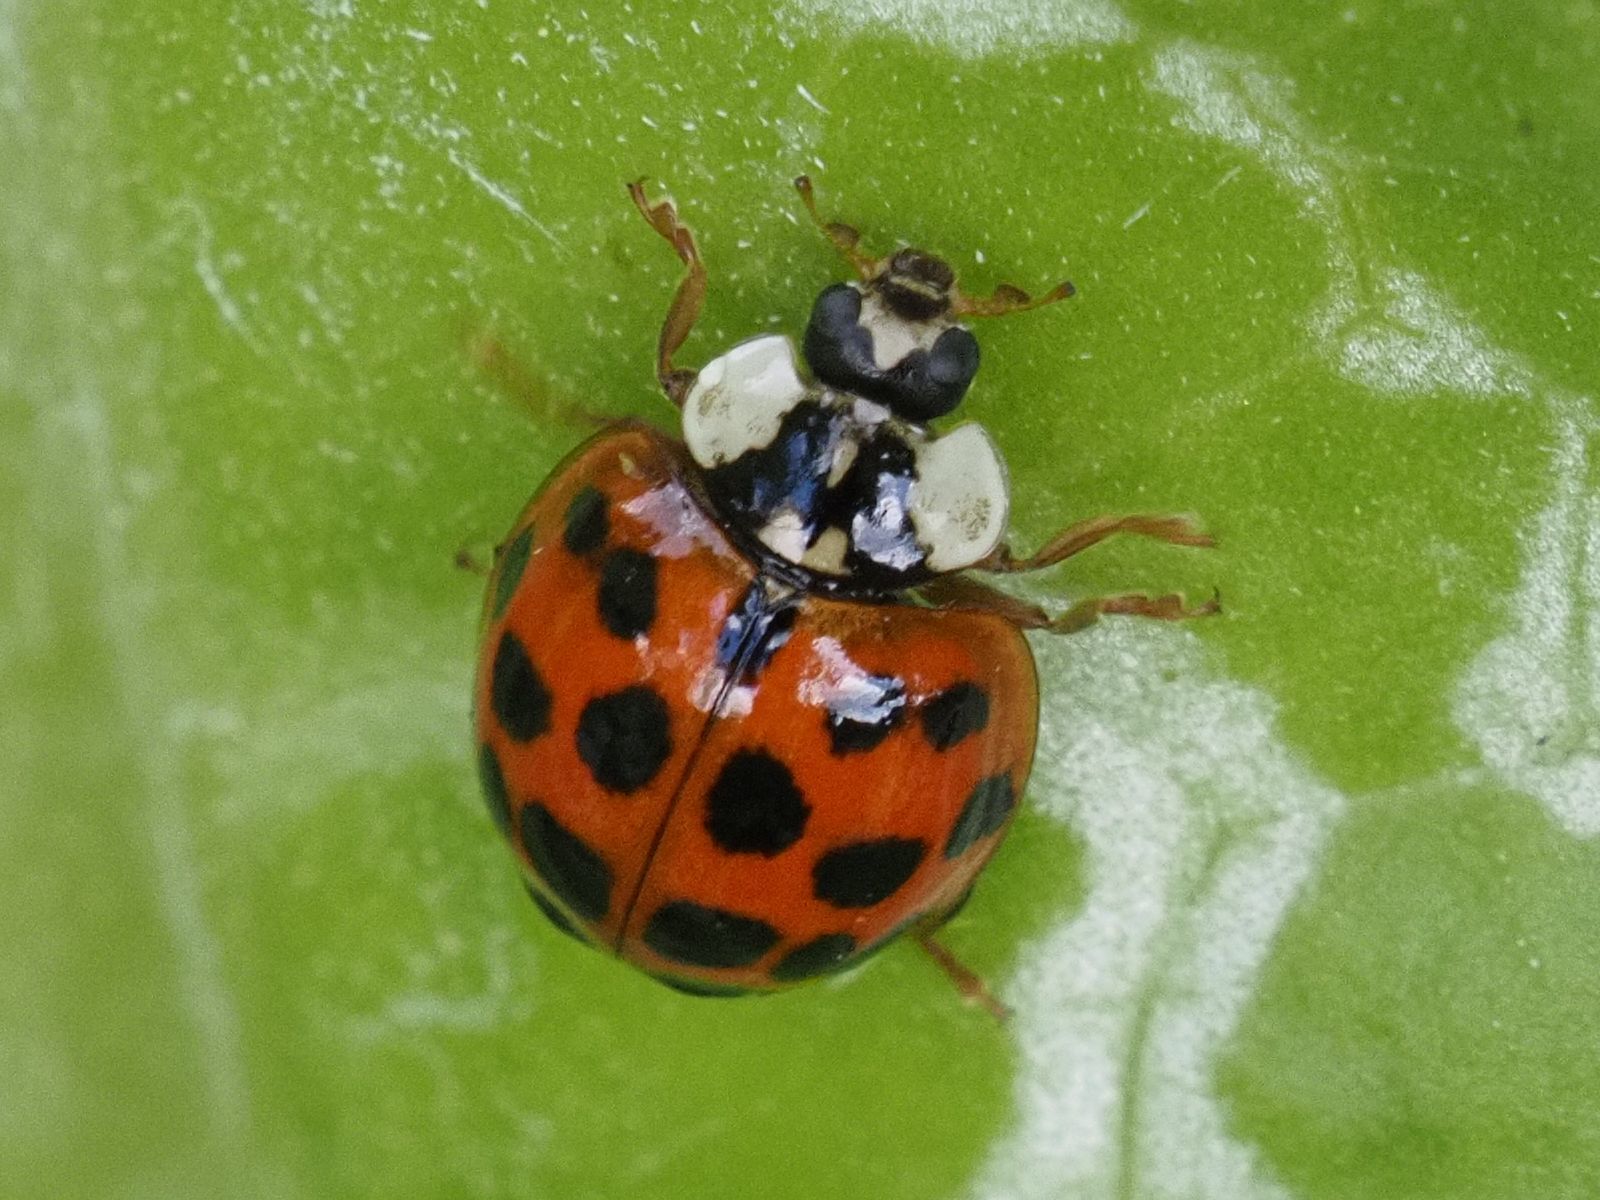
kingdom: Animalia
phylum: Arthropoda
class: Insecta
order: Coleoptera
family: Coccinellidae
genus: Harmonia
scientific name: Harmonia axyridis
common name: Harlequin ladybird
